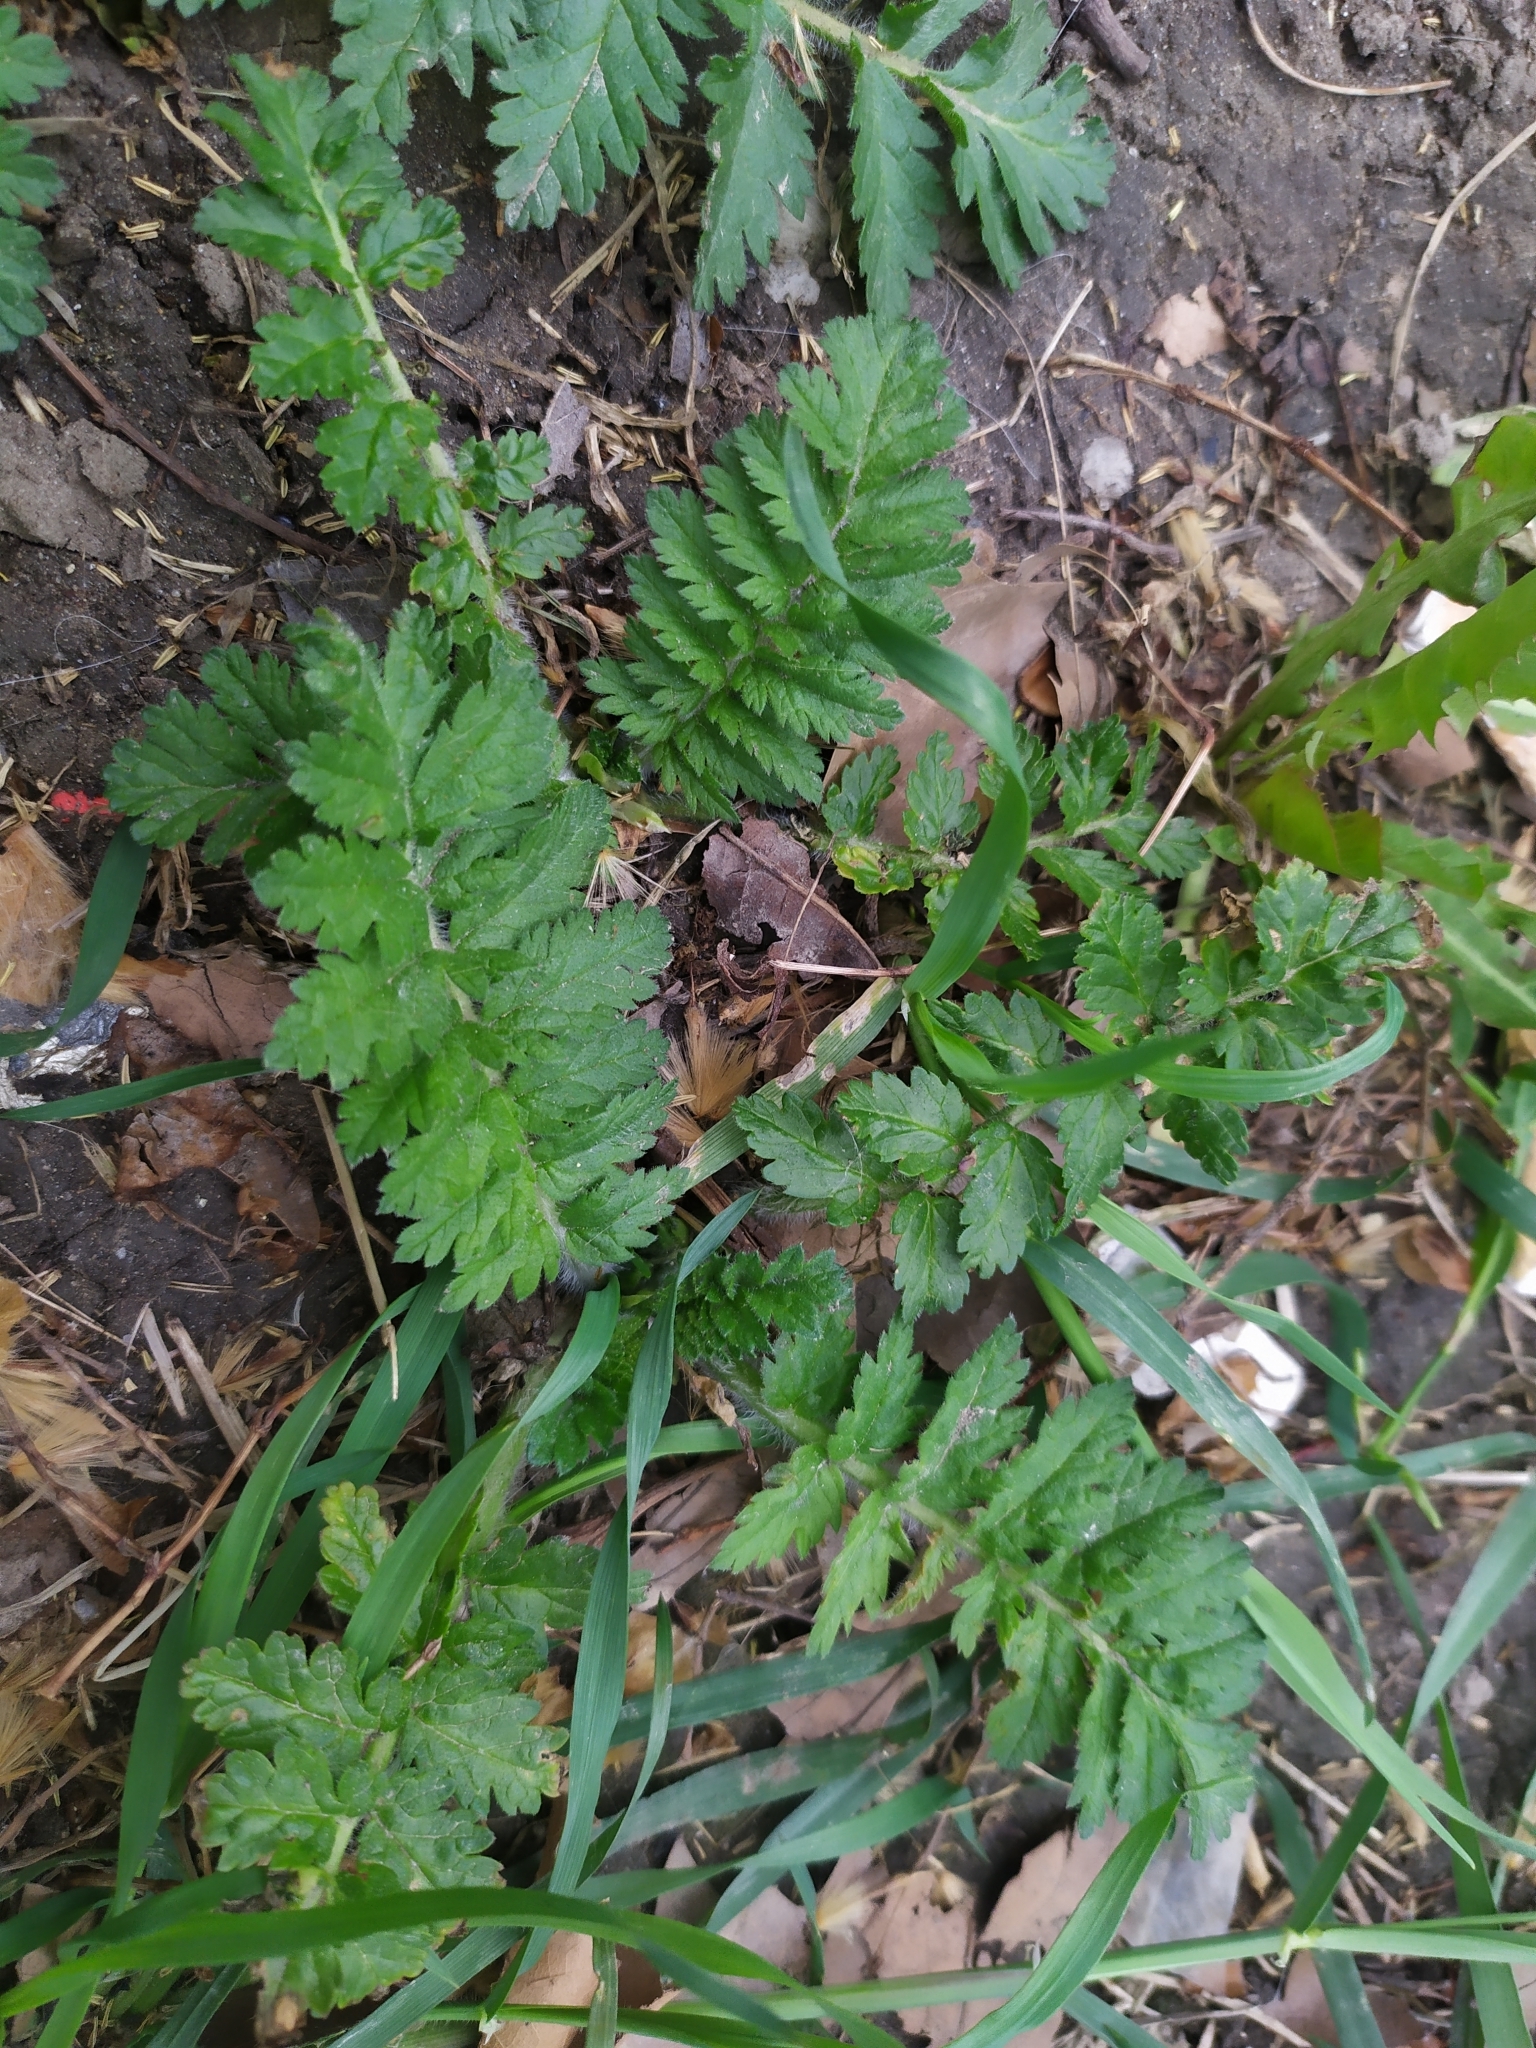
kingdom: Plantae
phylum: Tracheophyta
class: Magnoliopsida
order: Geraniales
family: Geraniaceae
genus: Erodium
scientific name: Erodium manescavi
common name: Garden stork's-bill
